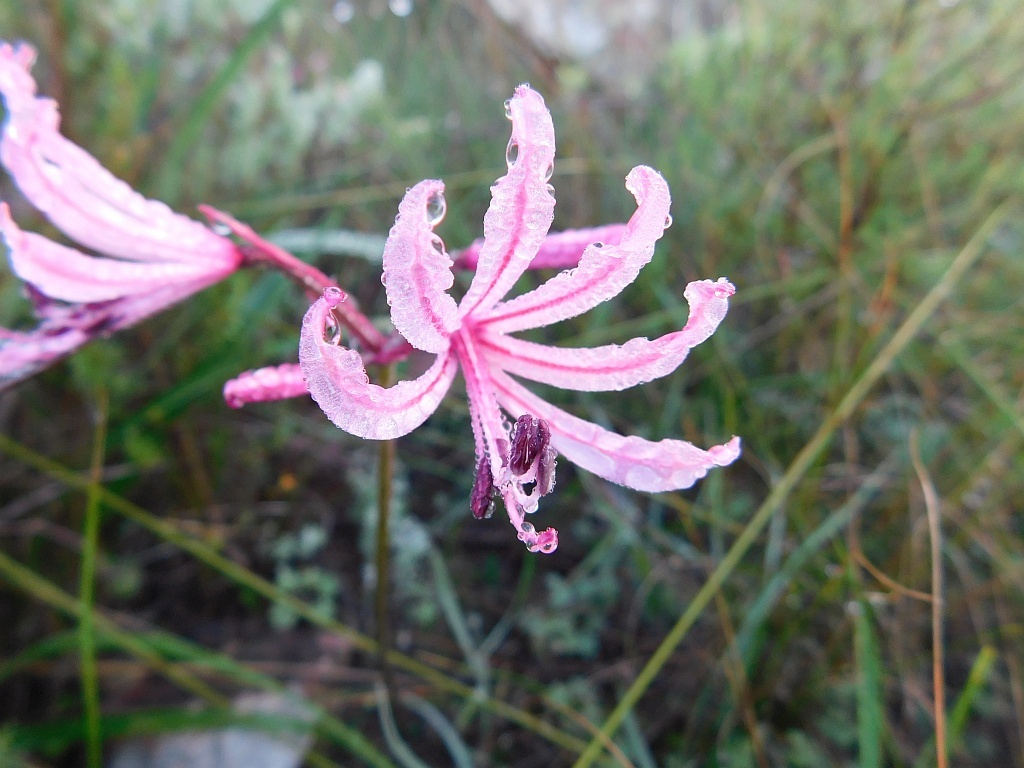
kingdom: Plantae
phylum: Tracheophyta
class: Liliopsida
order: Asparagales
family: Amaryllidaceae
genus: Nerine
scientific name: Nerine humilis
